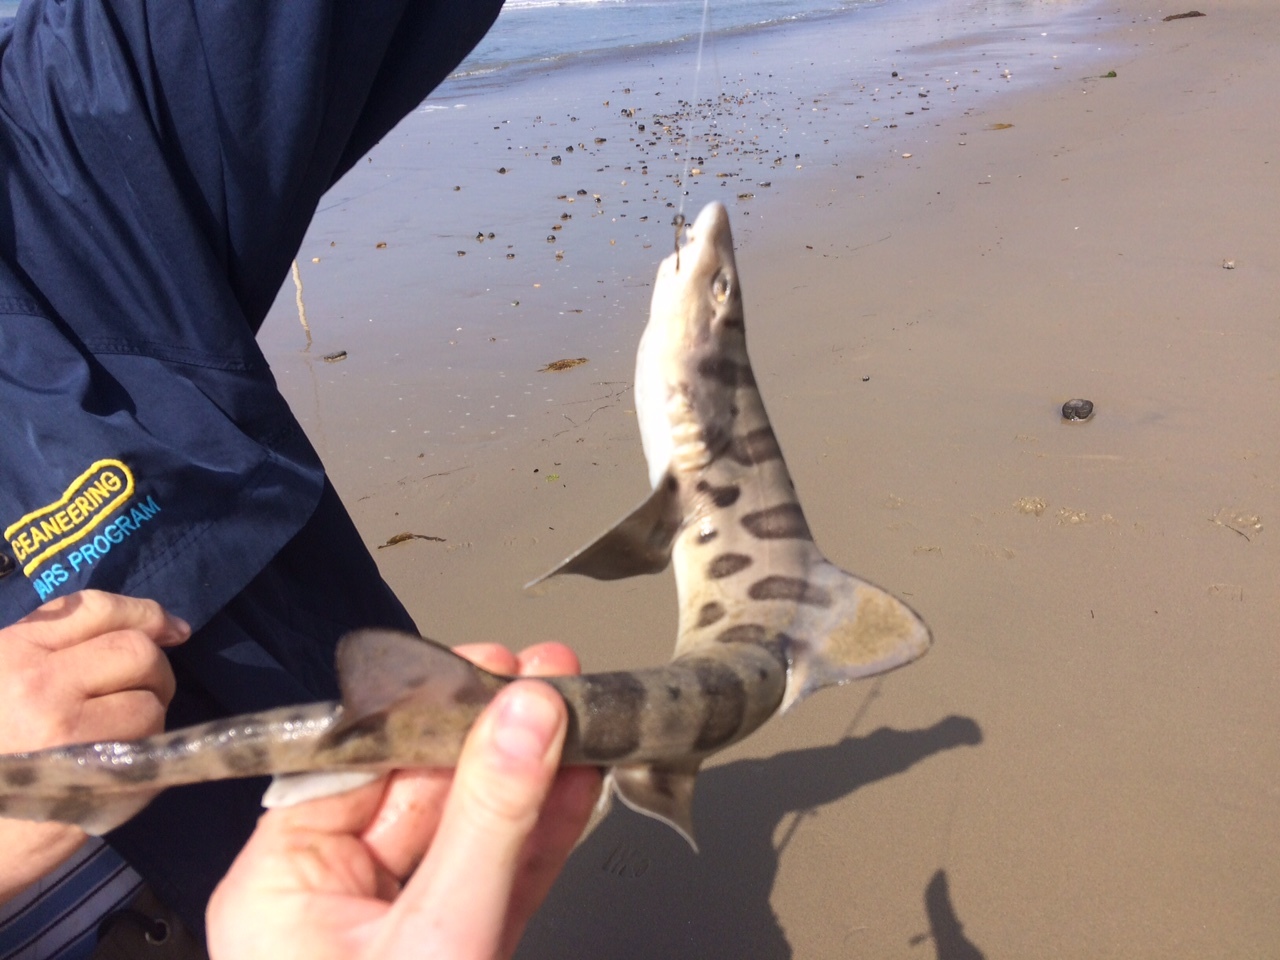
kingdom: Animalia
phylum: Chordata
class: Elasmobranchii
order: Carcharhiniformes
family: Triakidae
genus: Triakis
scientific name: Triakis semifasciata
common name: Leopard shark
